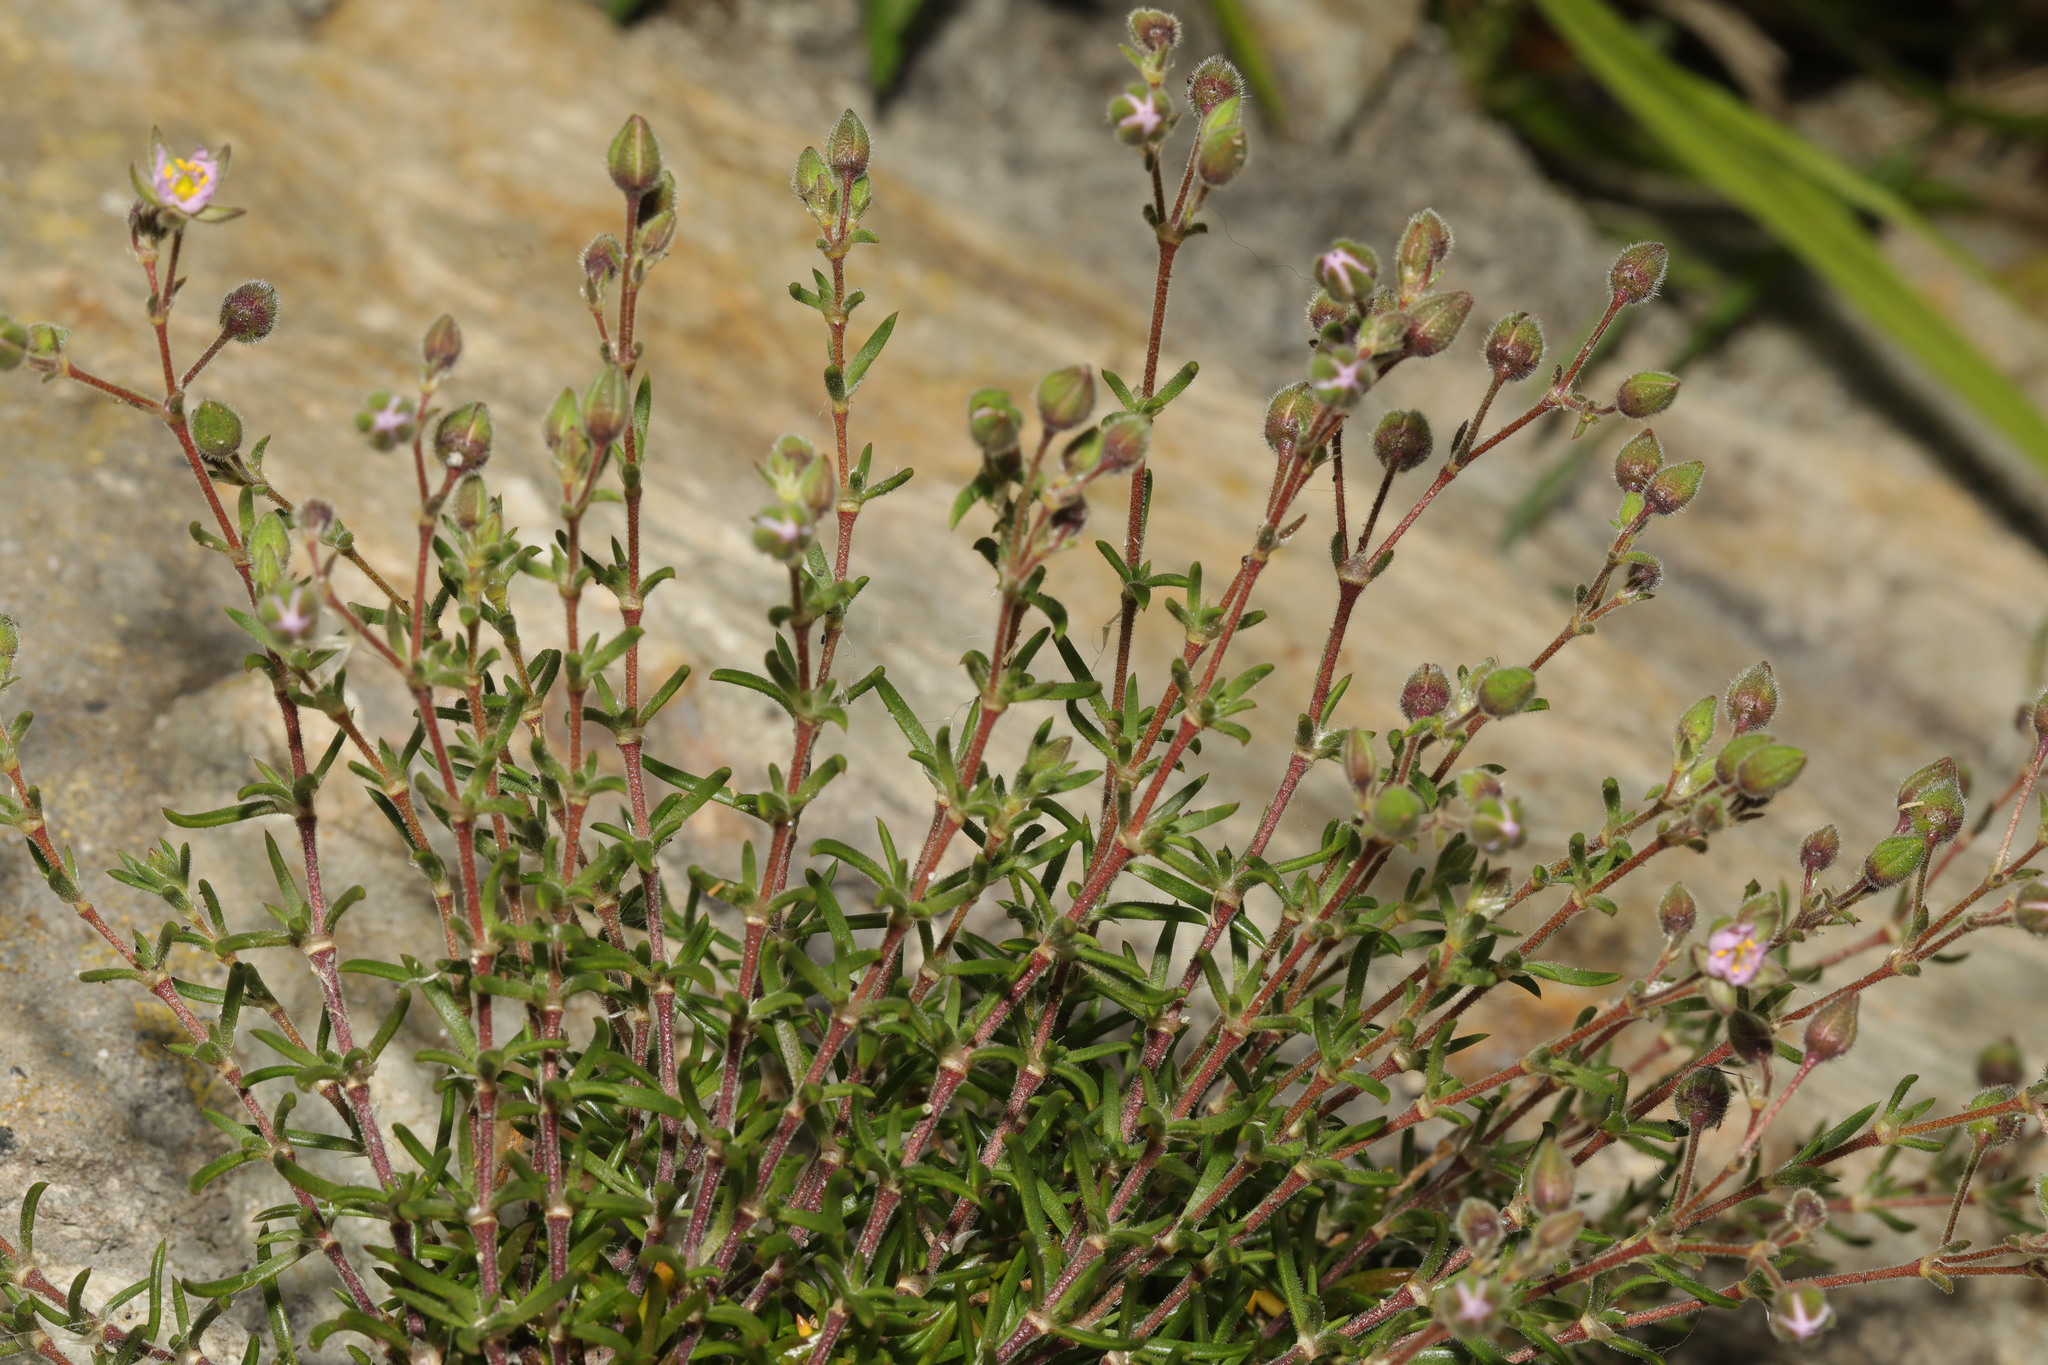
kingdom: Plantae
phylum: Tracheophyta
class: Magnoliopsida
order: Caryophyllales
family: Caryophyllaceae
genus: Spergularia
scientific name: Spergularia rubra
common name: Red sand-spurrey
